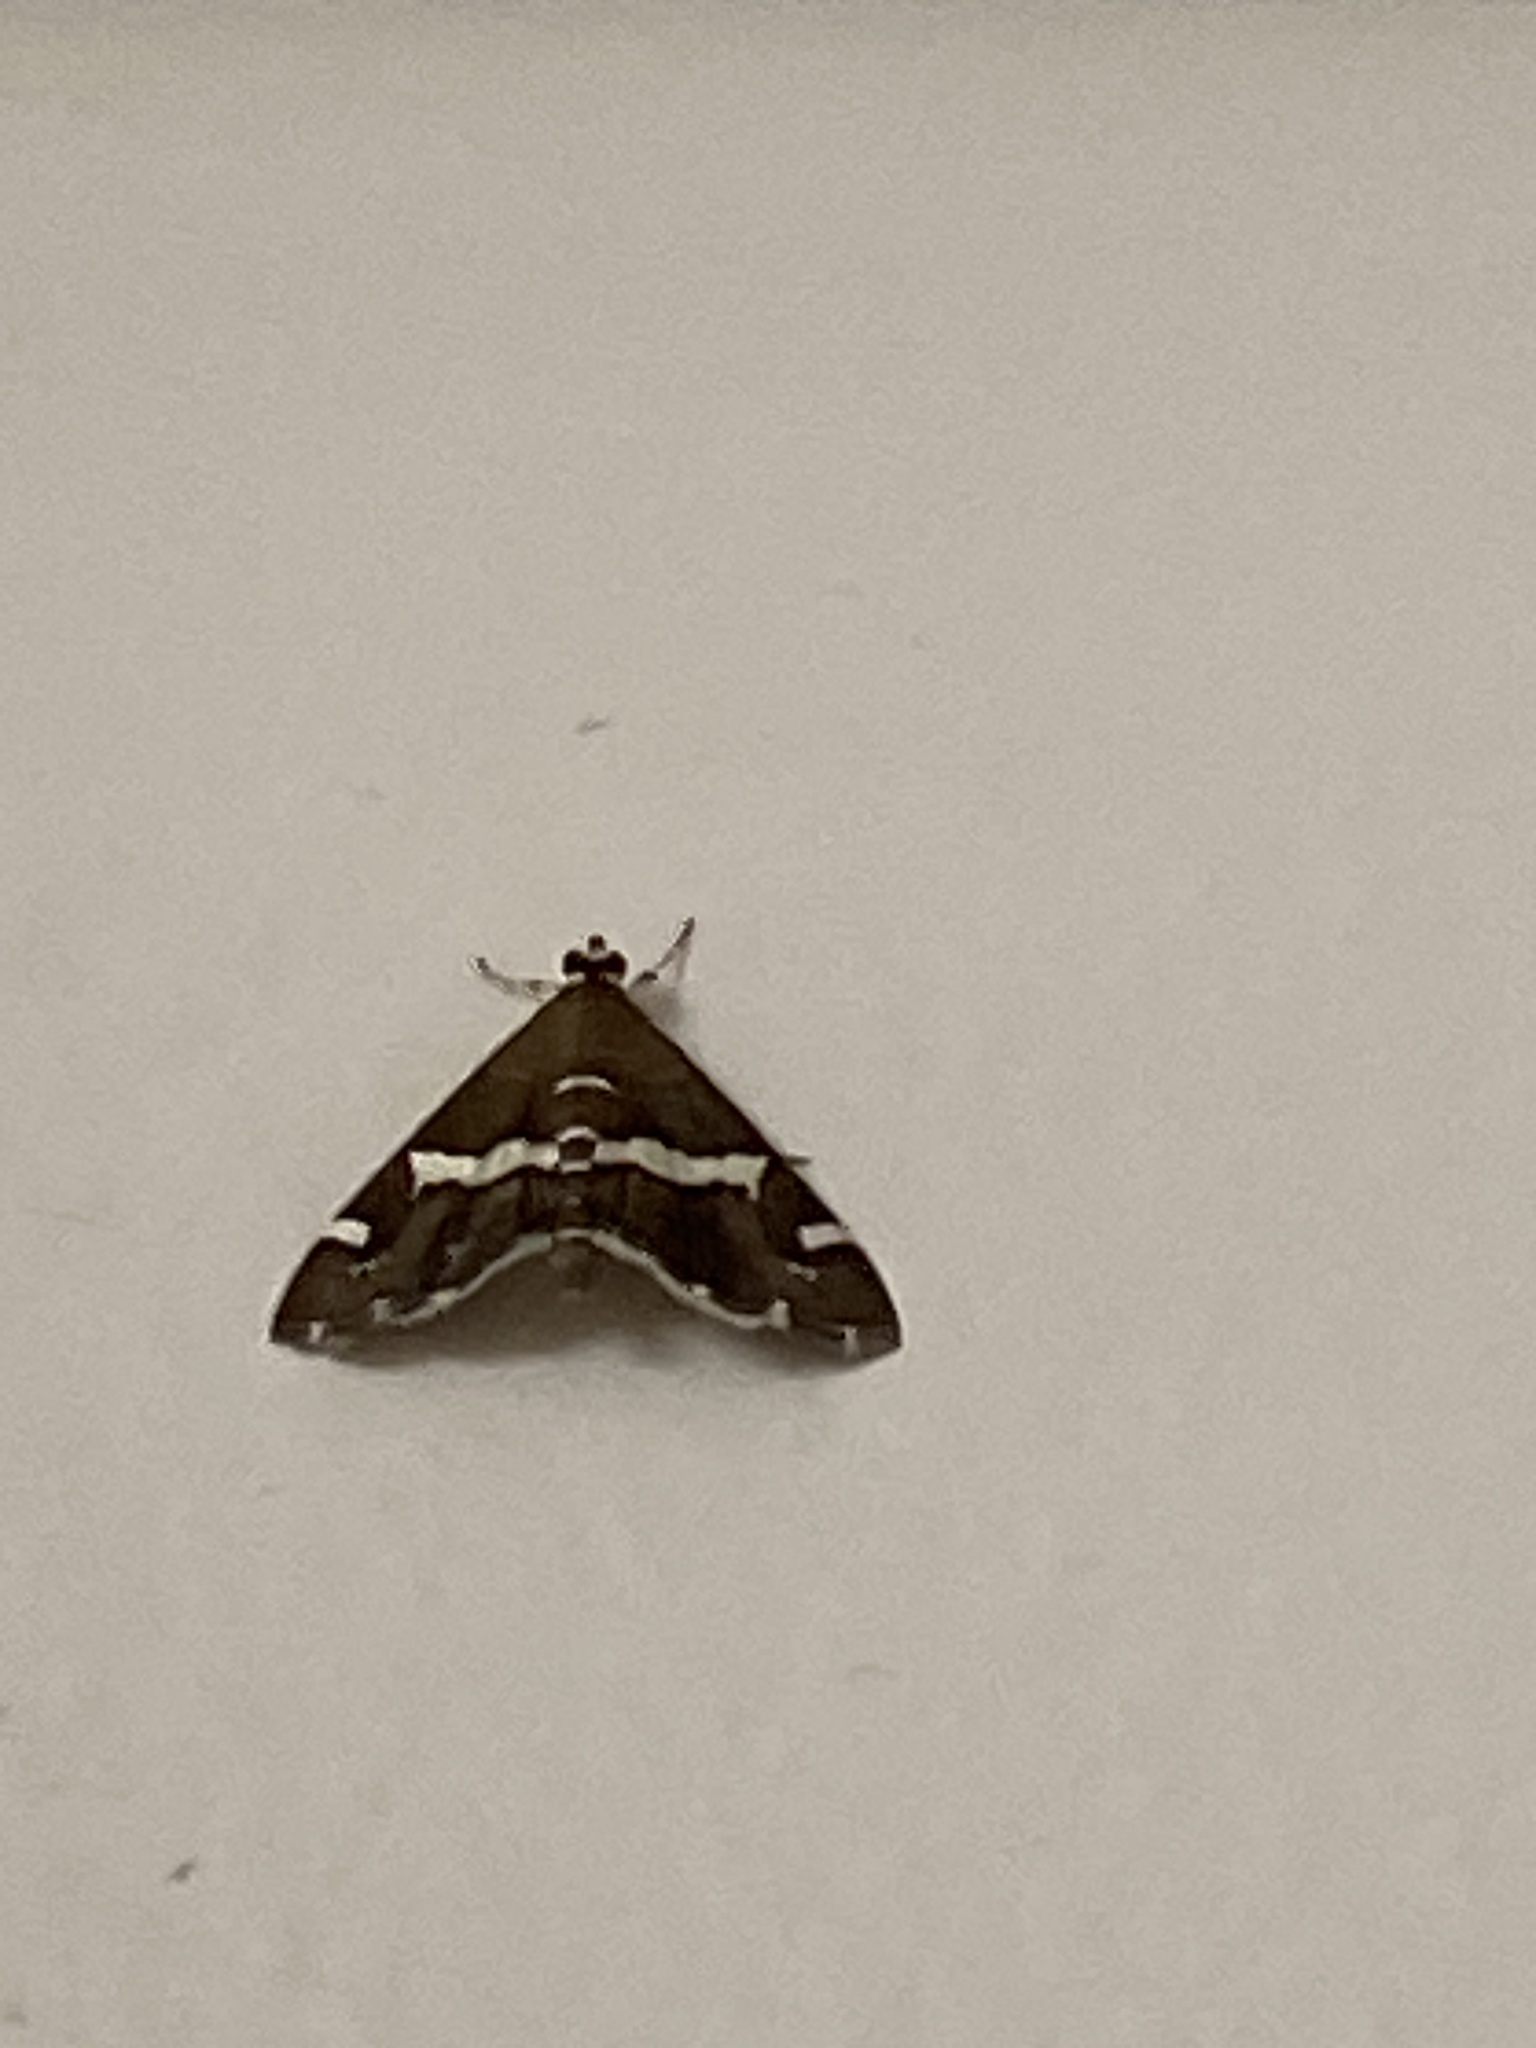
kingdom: Animalia
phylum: Arthropoda
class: Insecta
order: Lepidoptera
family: Crambidae
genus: Spoladea
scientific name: Spoladea recurvalis
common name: Beet webworm moth
